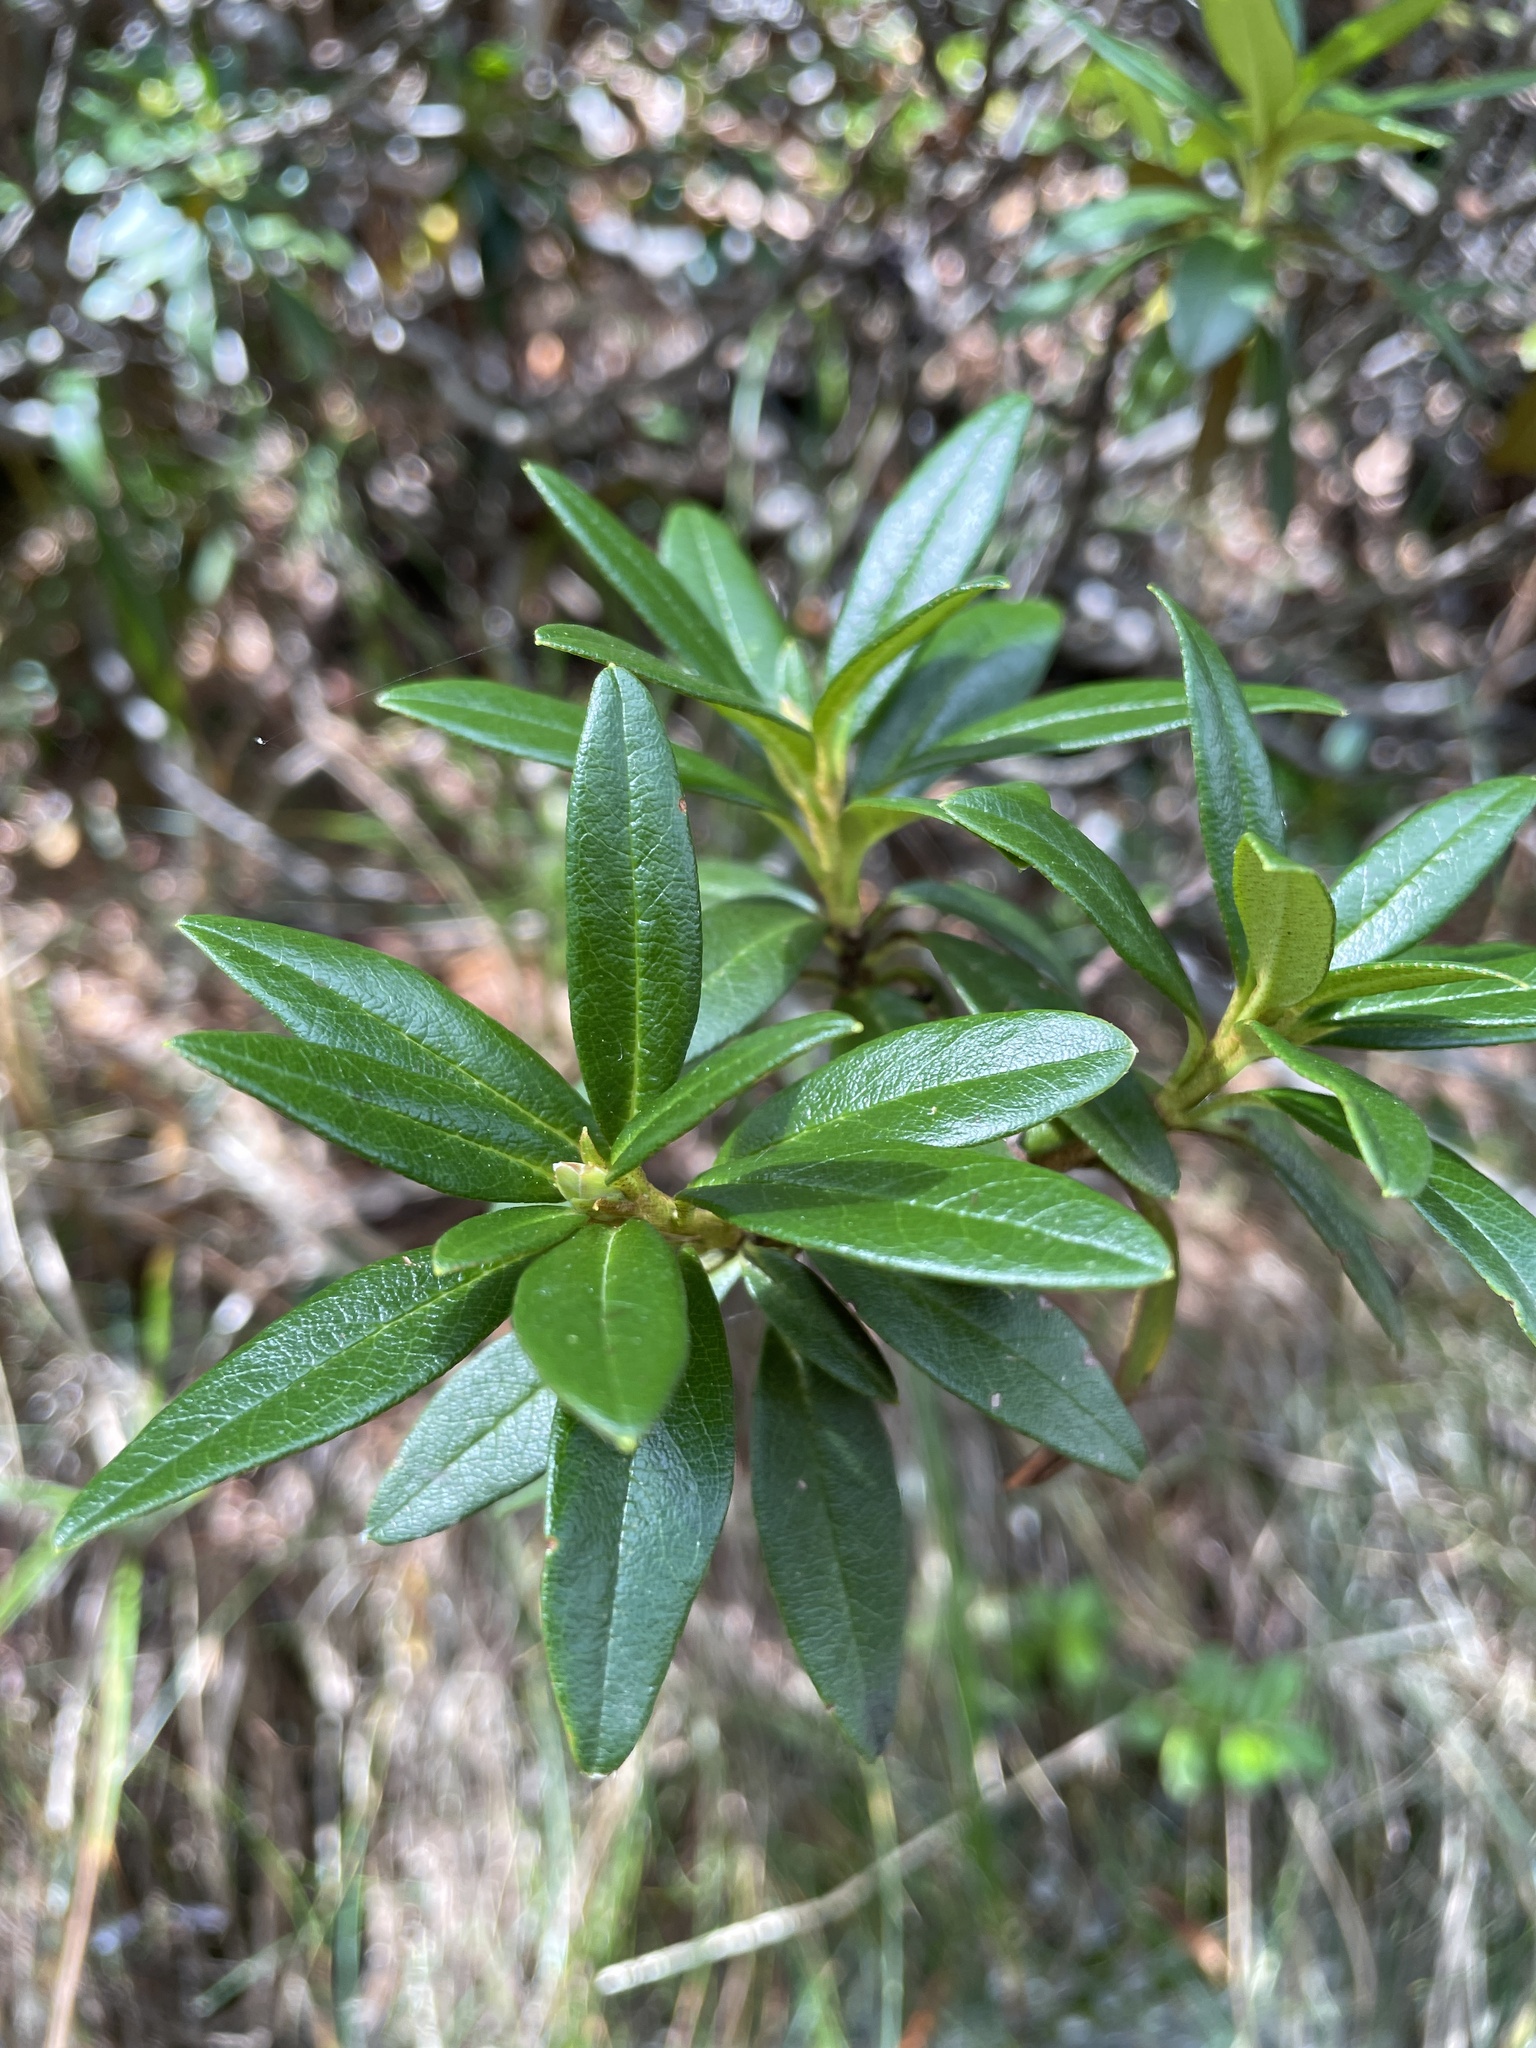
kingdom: Plantae
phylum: Tracheophyta
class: Magnoliopsida
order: Ericales
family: Ericaceae
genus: Rhododendron
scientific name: Rhododendron ferrugineum
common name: Alpenrose
